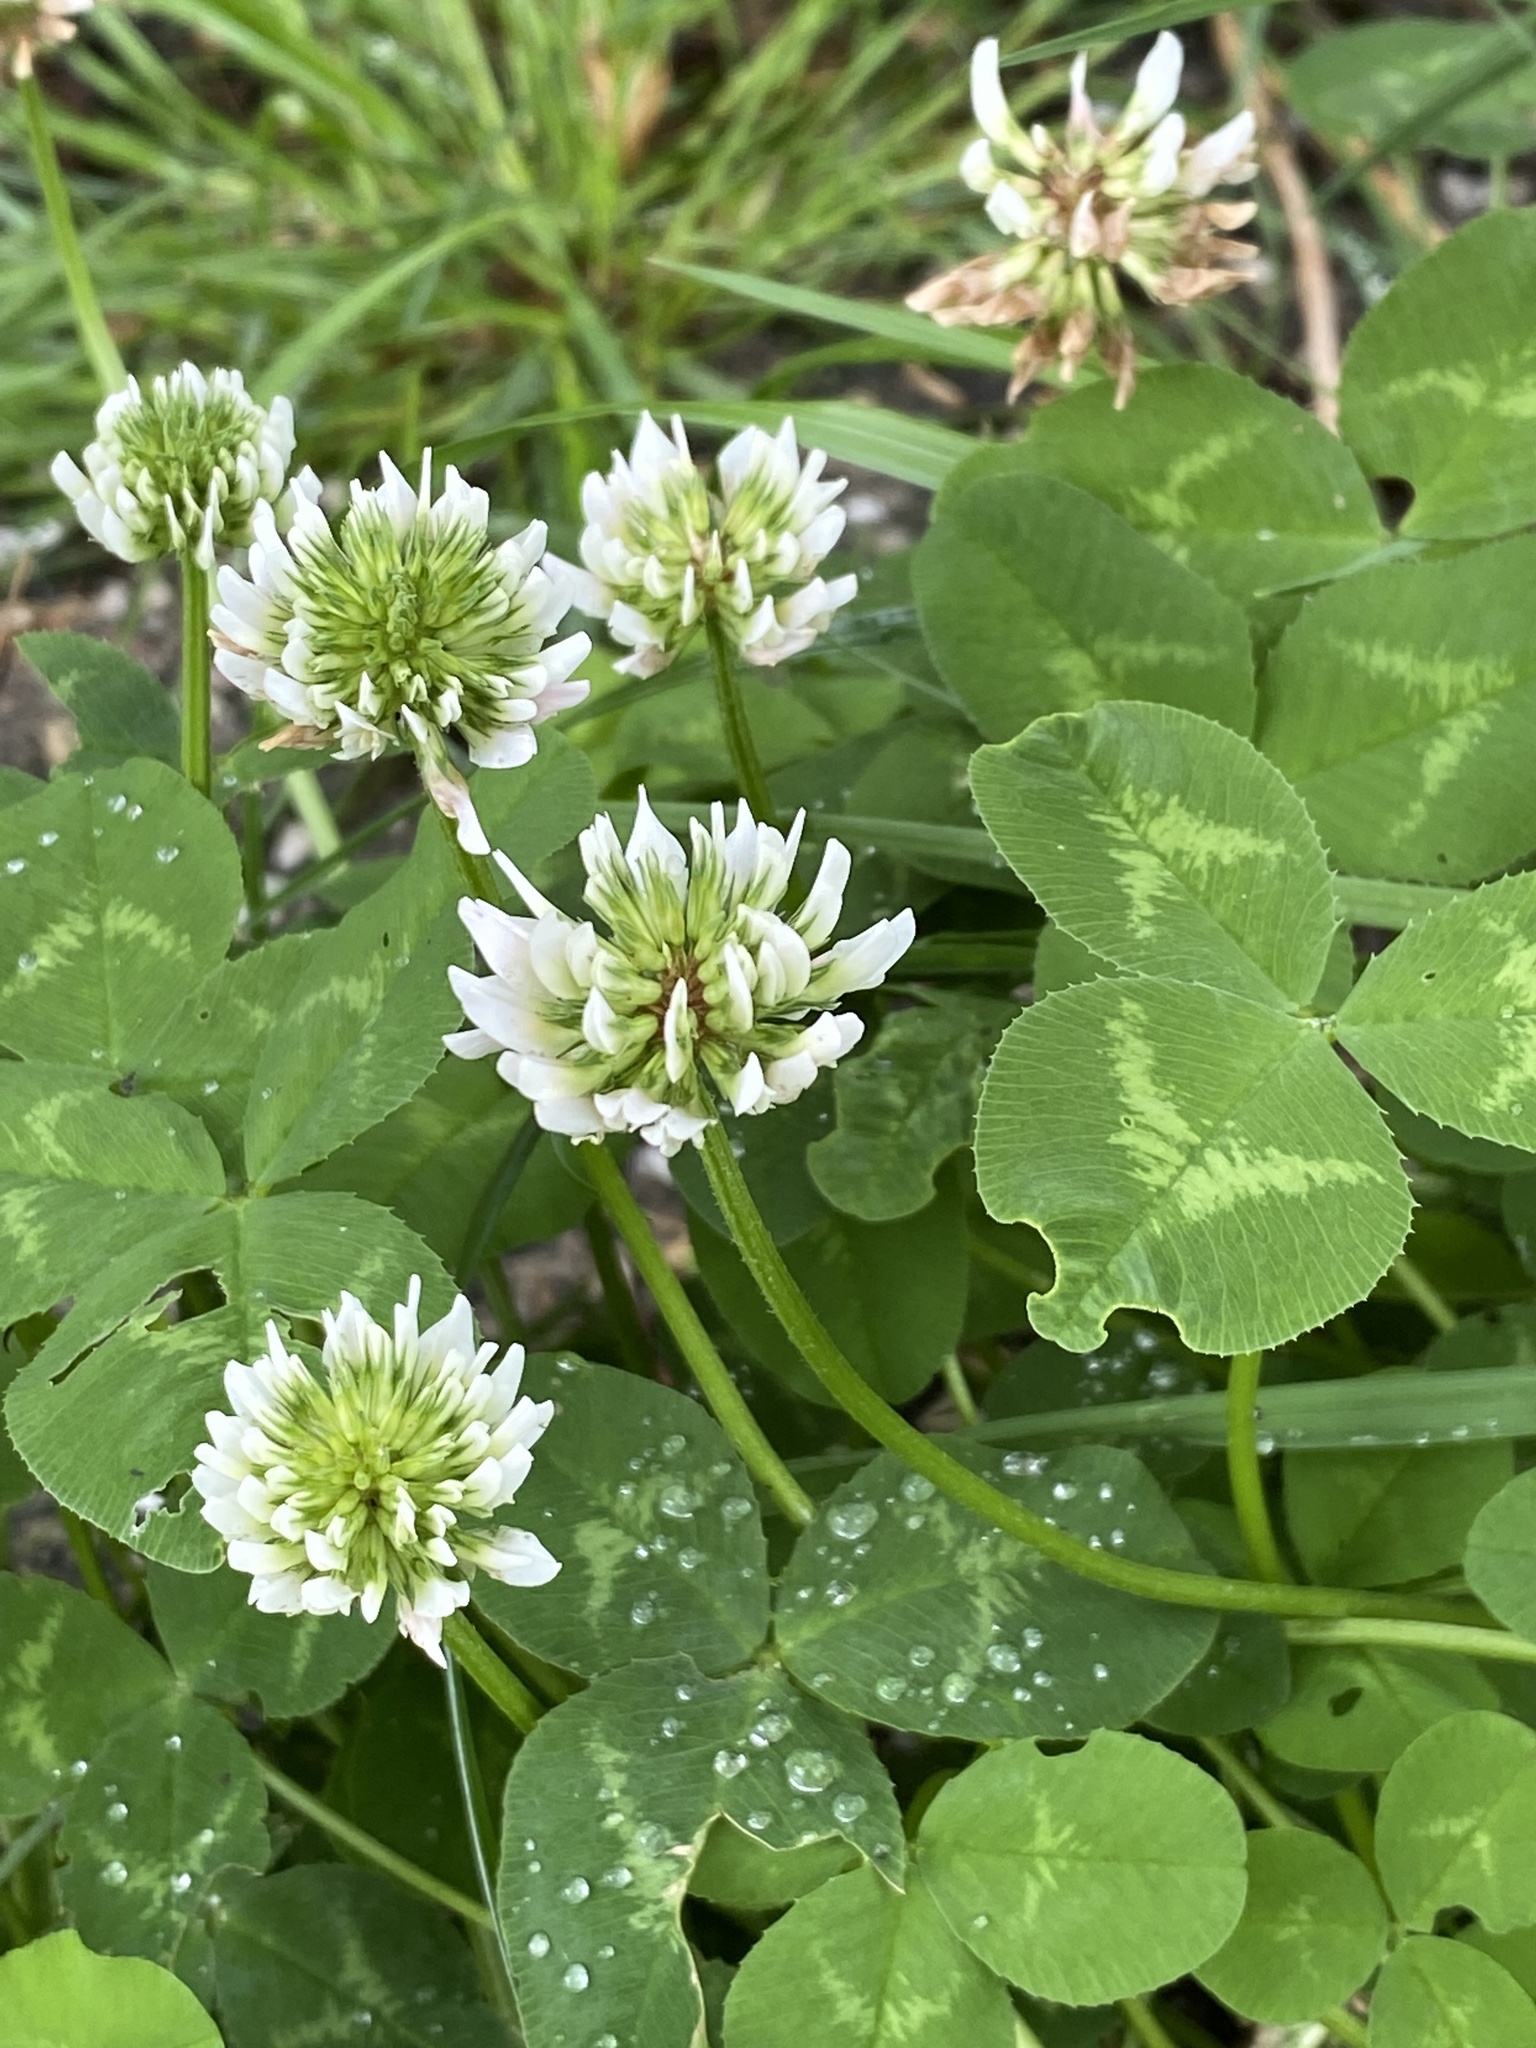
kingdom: Plantae
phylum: Tracheophyta
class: Magnoliopsida
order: Fabales
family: Fabaceae
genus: Trifolium
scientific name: Trifolium repens
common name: White clover
